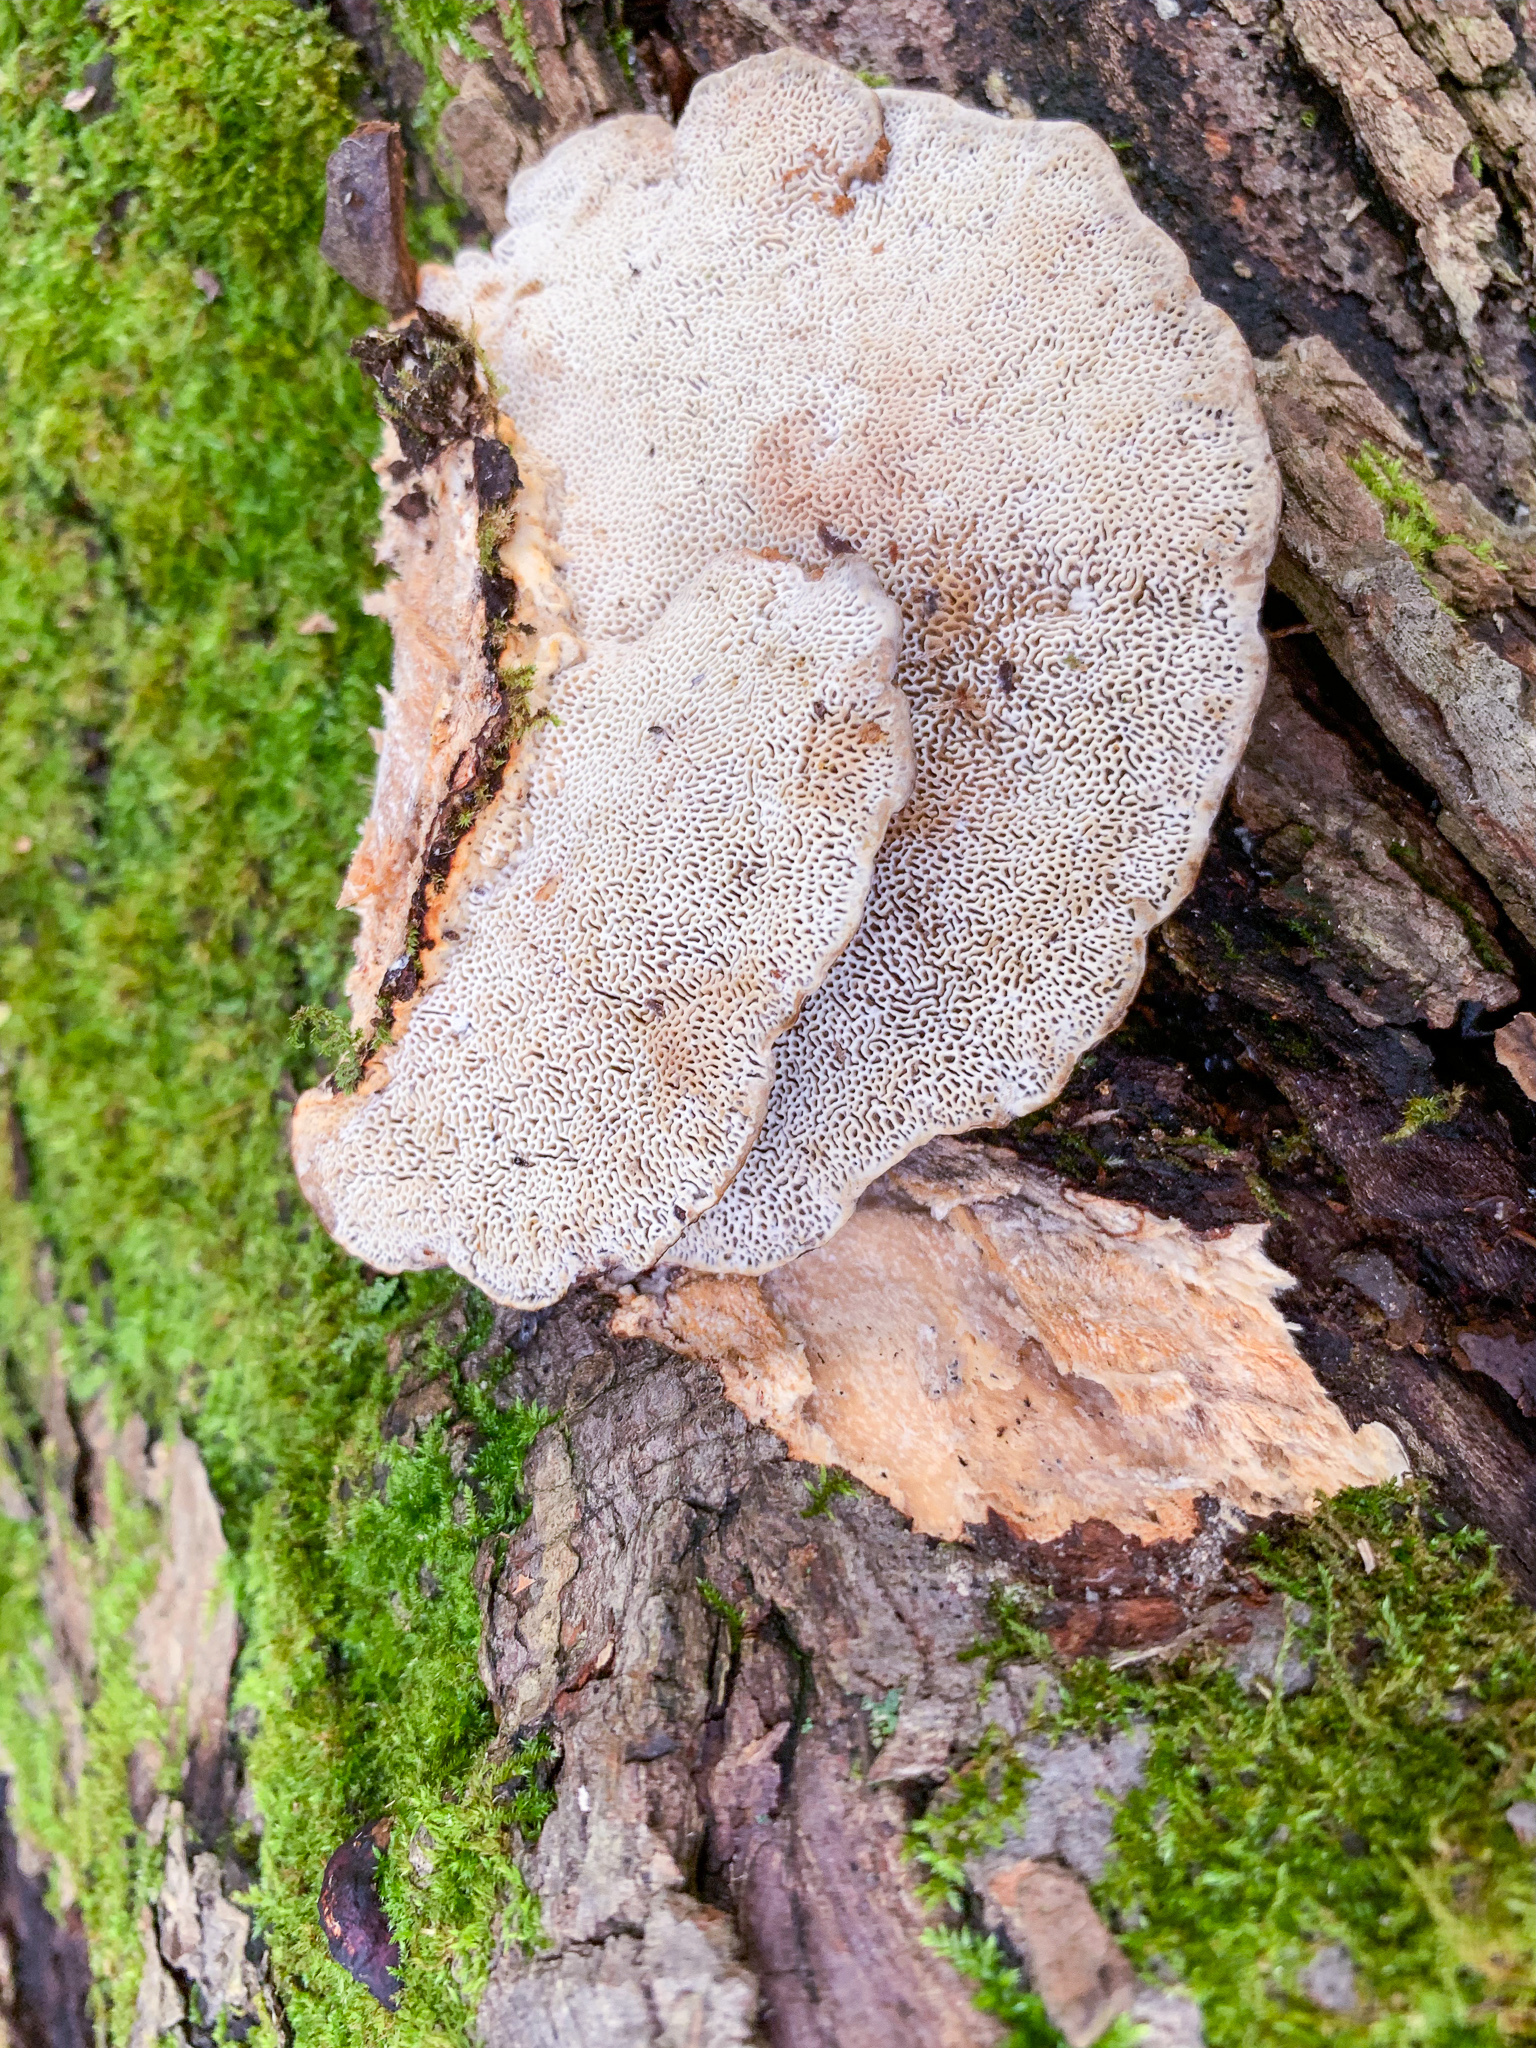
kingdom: Fungi
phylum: Basidiomycota
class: Agaricomycetes
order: Polyporales
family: Polyporaceae
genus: Daedaleopsis
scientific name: Daedaleopsis confragosa
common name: Blushing bracket
